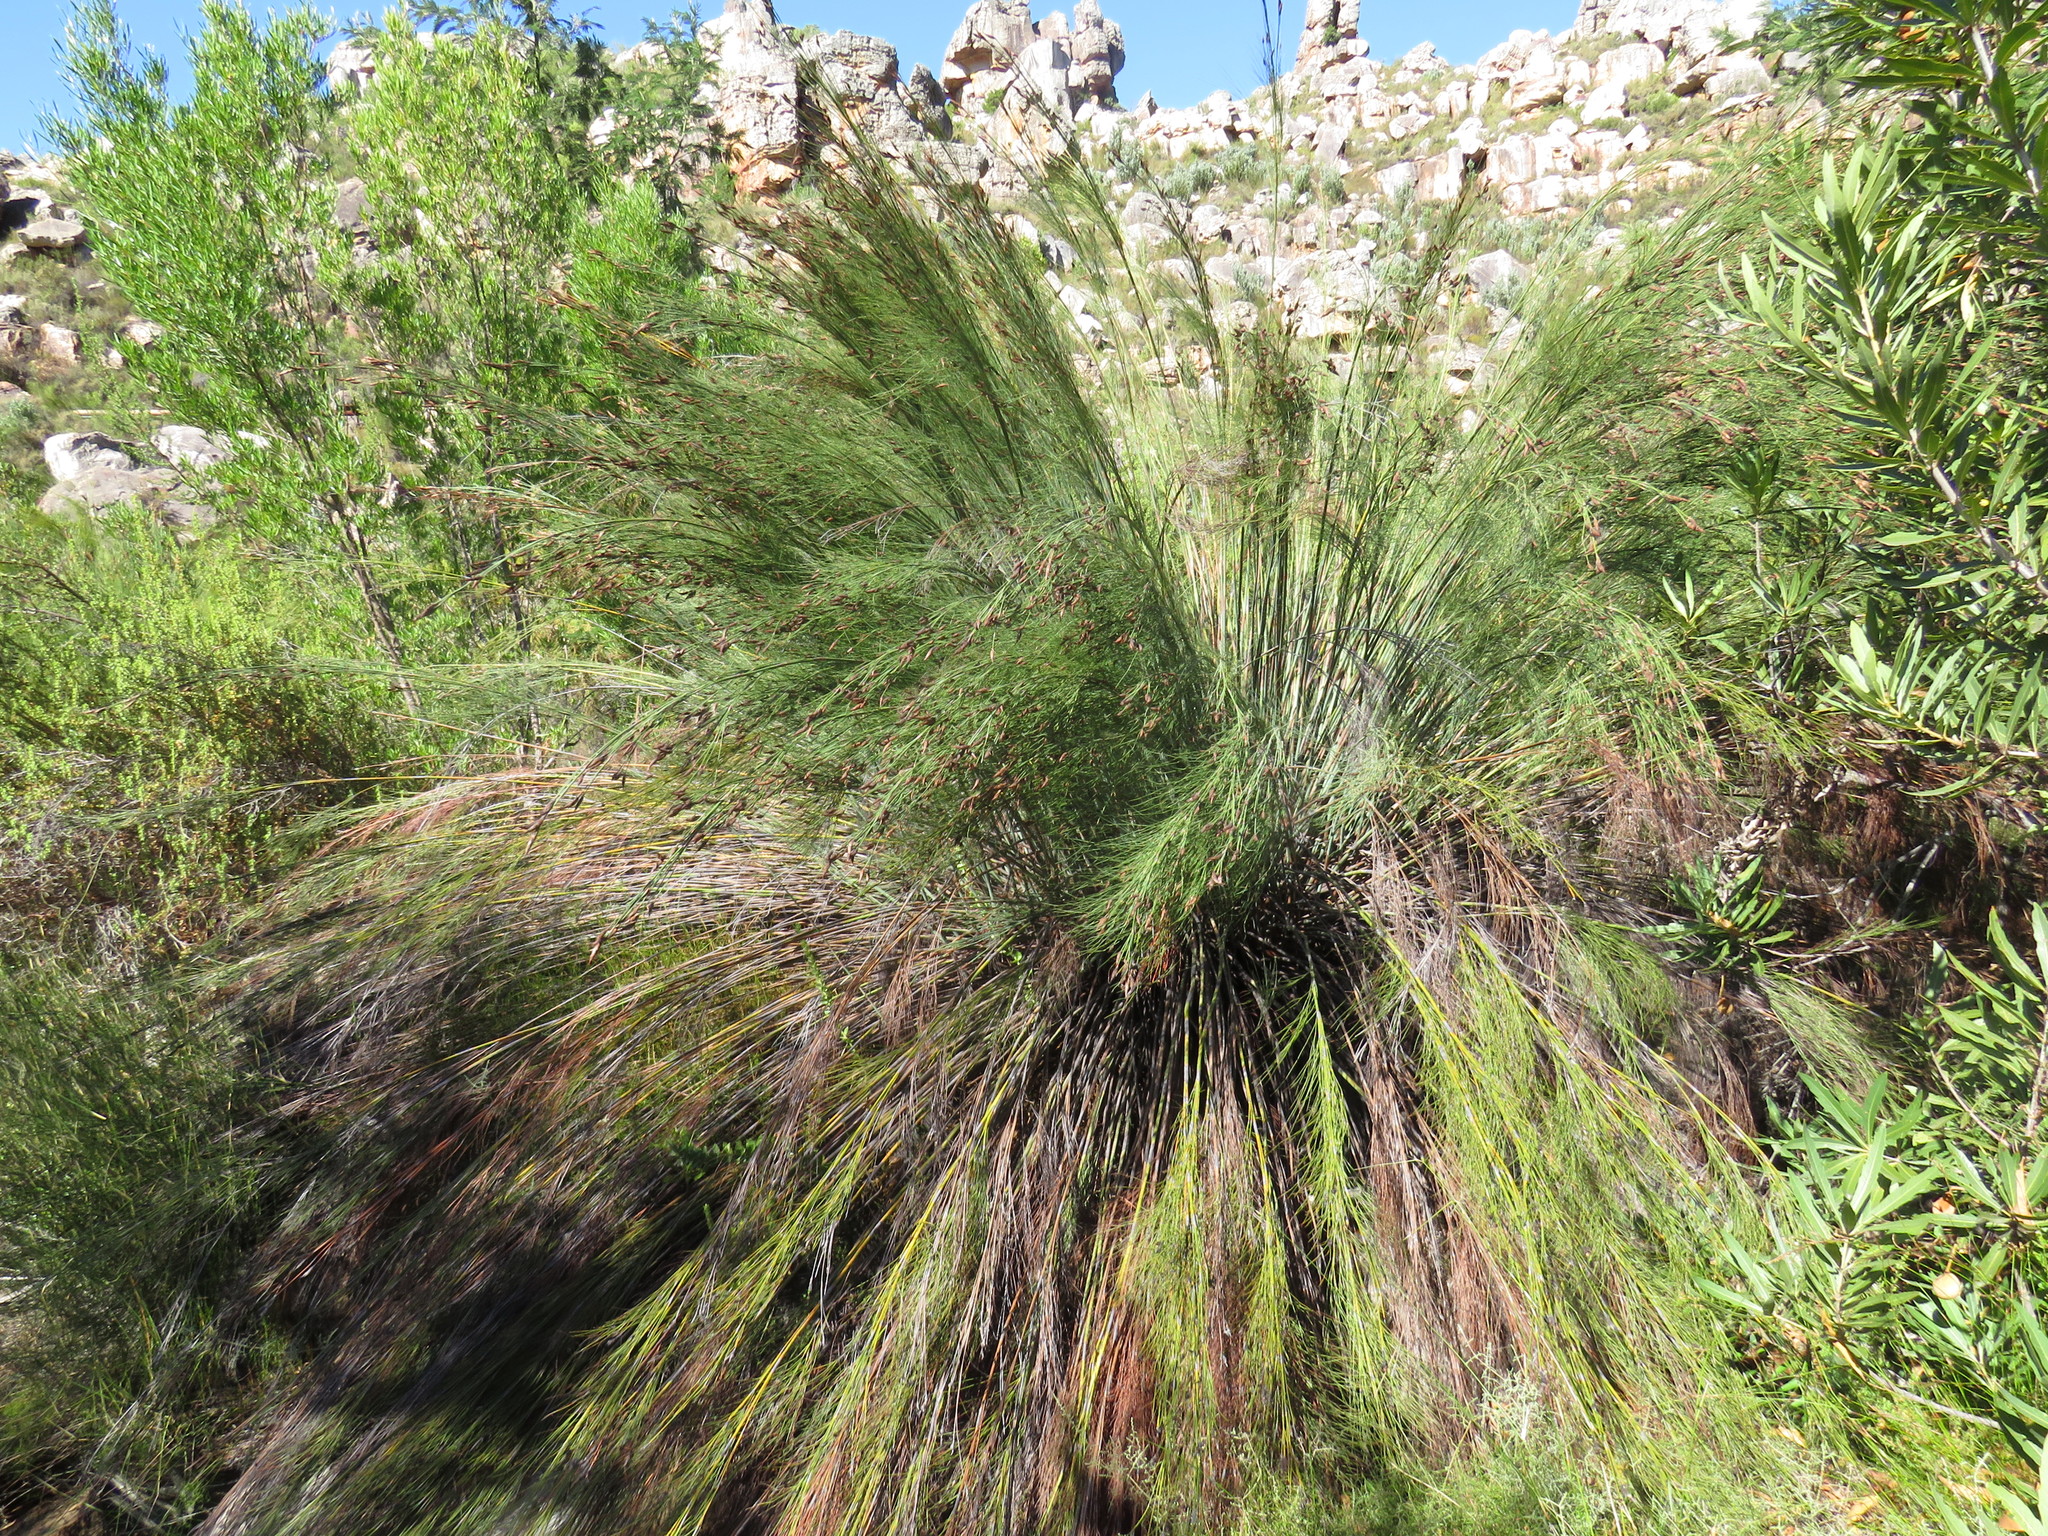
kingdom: Plantae
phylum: Tracheophyta
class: Liliopsida
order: Poales
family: Restionaceae
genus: Cannomois
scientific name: Cannomois robusta
